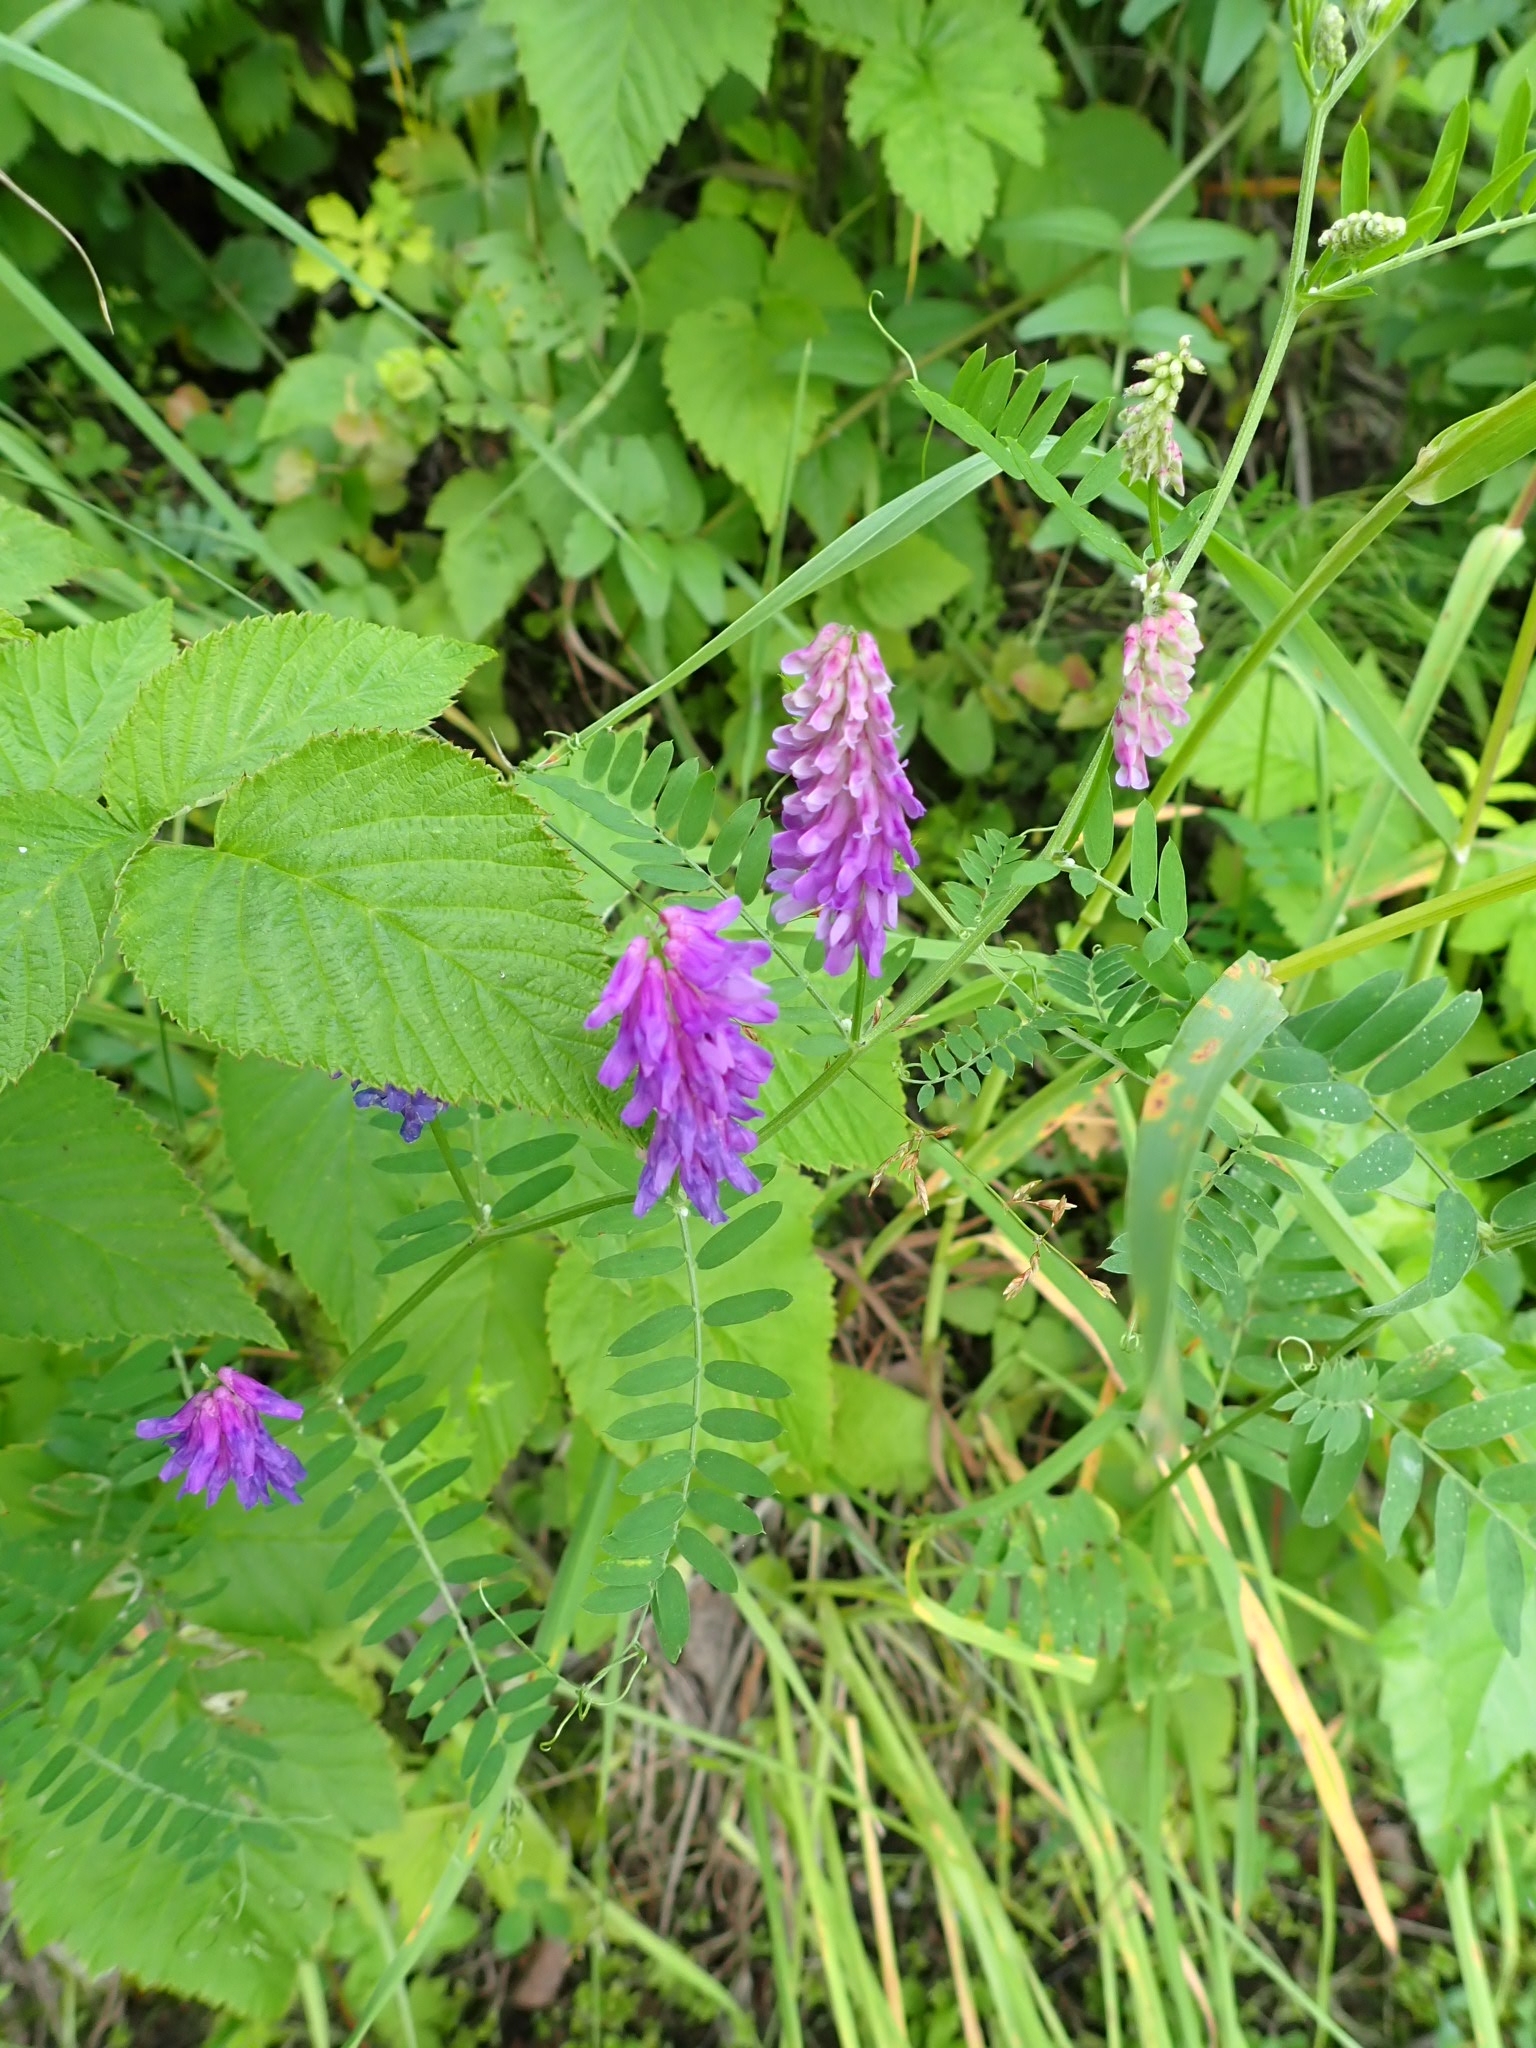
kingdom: Plantae
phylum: Tracheophyta
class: Magnoliopsida
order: Fabales
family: Fabaceae
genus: Vicia
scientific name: Vicia cracca
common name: Bird vetch
